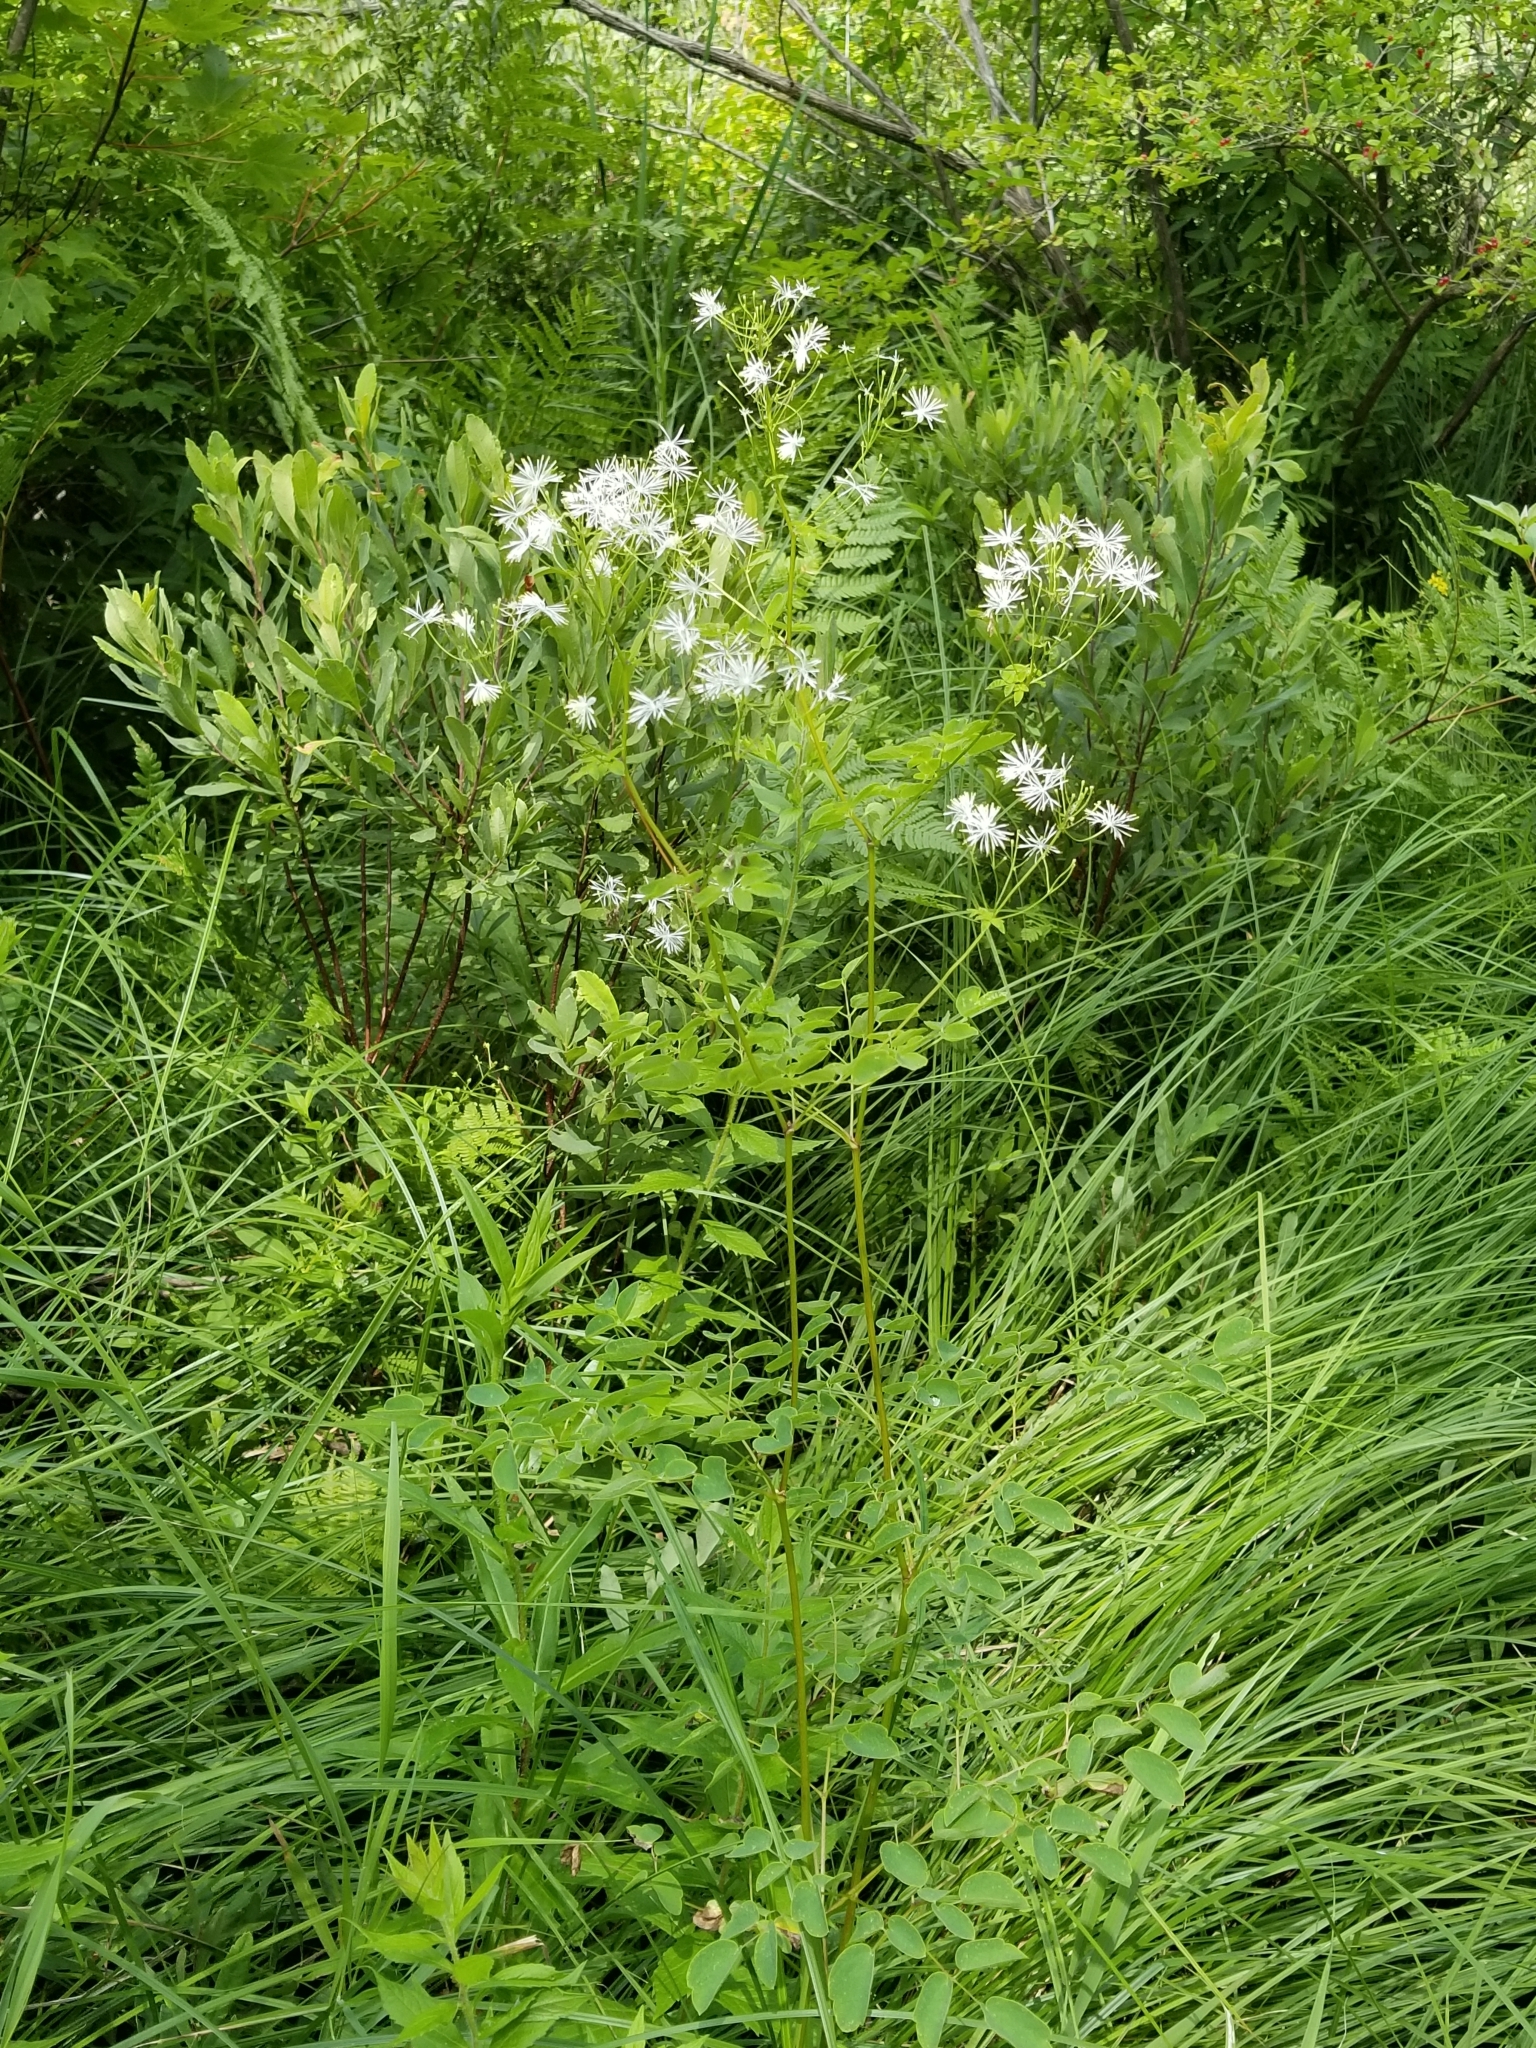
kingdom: Plantae
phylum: Tracheophyta
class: Magnoliopsida
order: Ranunculales
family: Ranunculaceae
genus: Thalictrum
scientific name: Thalictrum pubescens
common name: King-of-the-meadow
